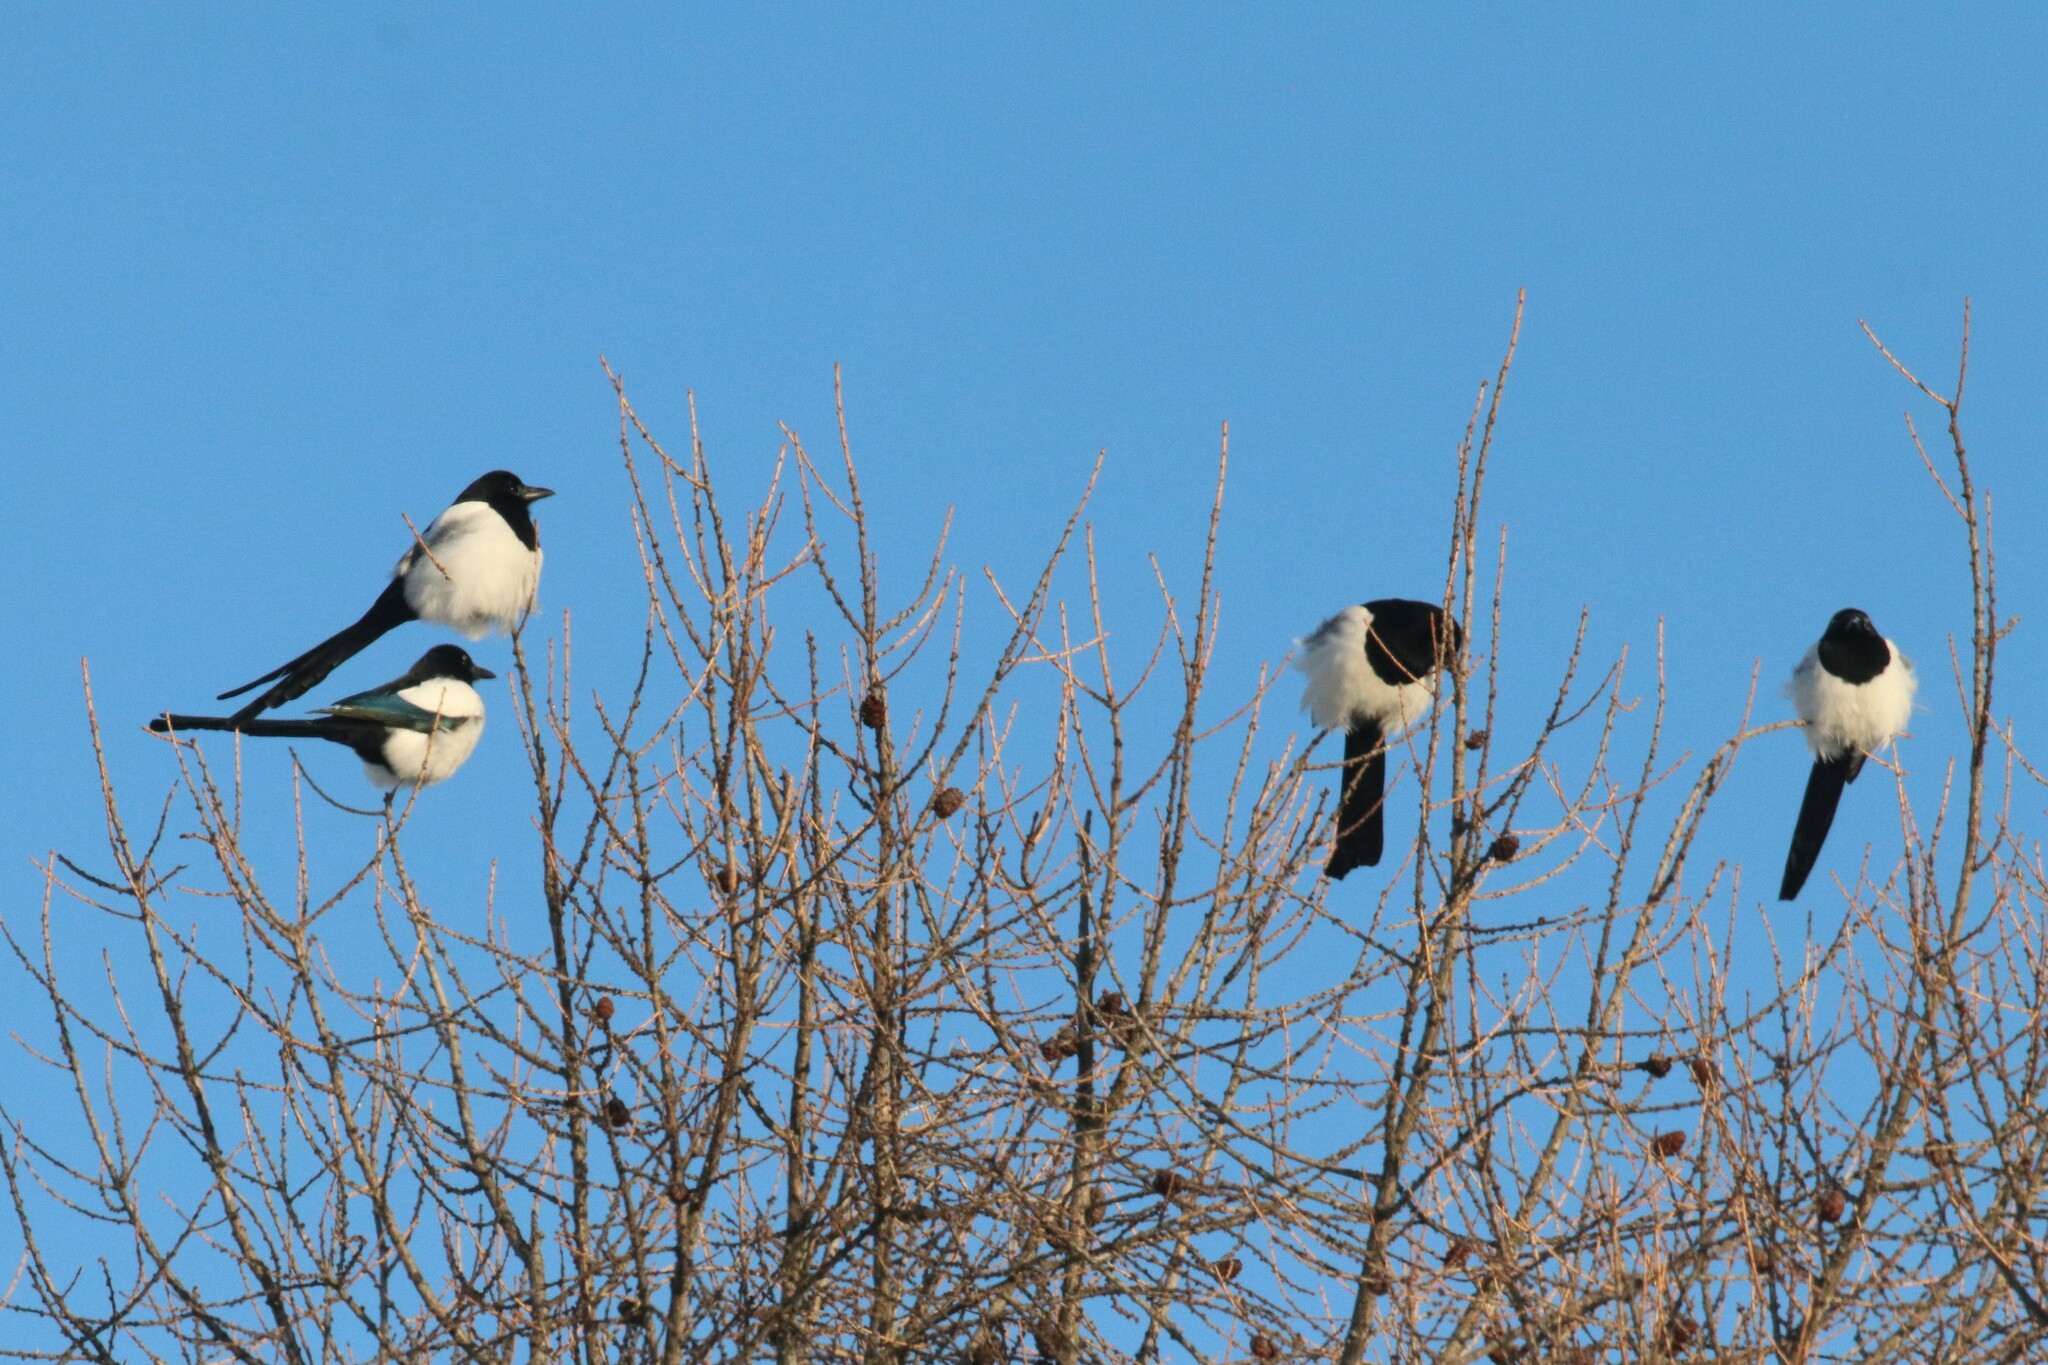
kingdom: Animalia
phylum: Chordata
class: Aves
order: Passeriformes
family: Corvidae
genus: Pica
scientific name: Pica pica
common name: Eurasian magpie
